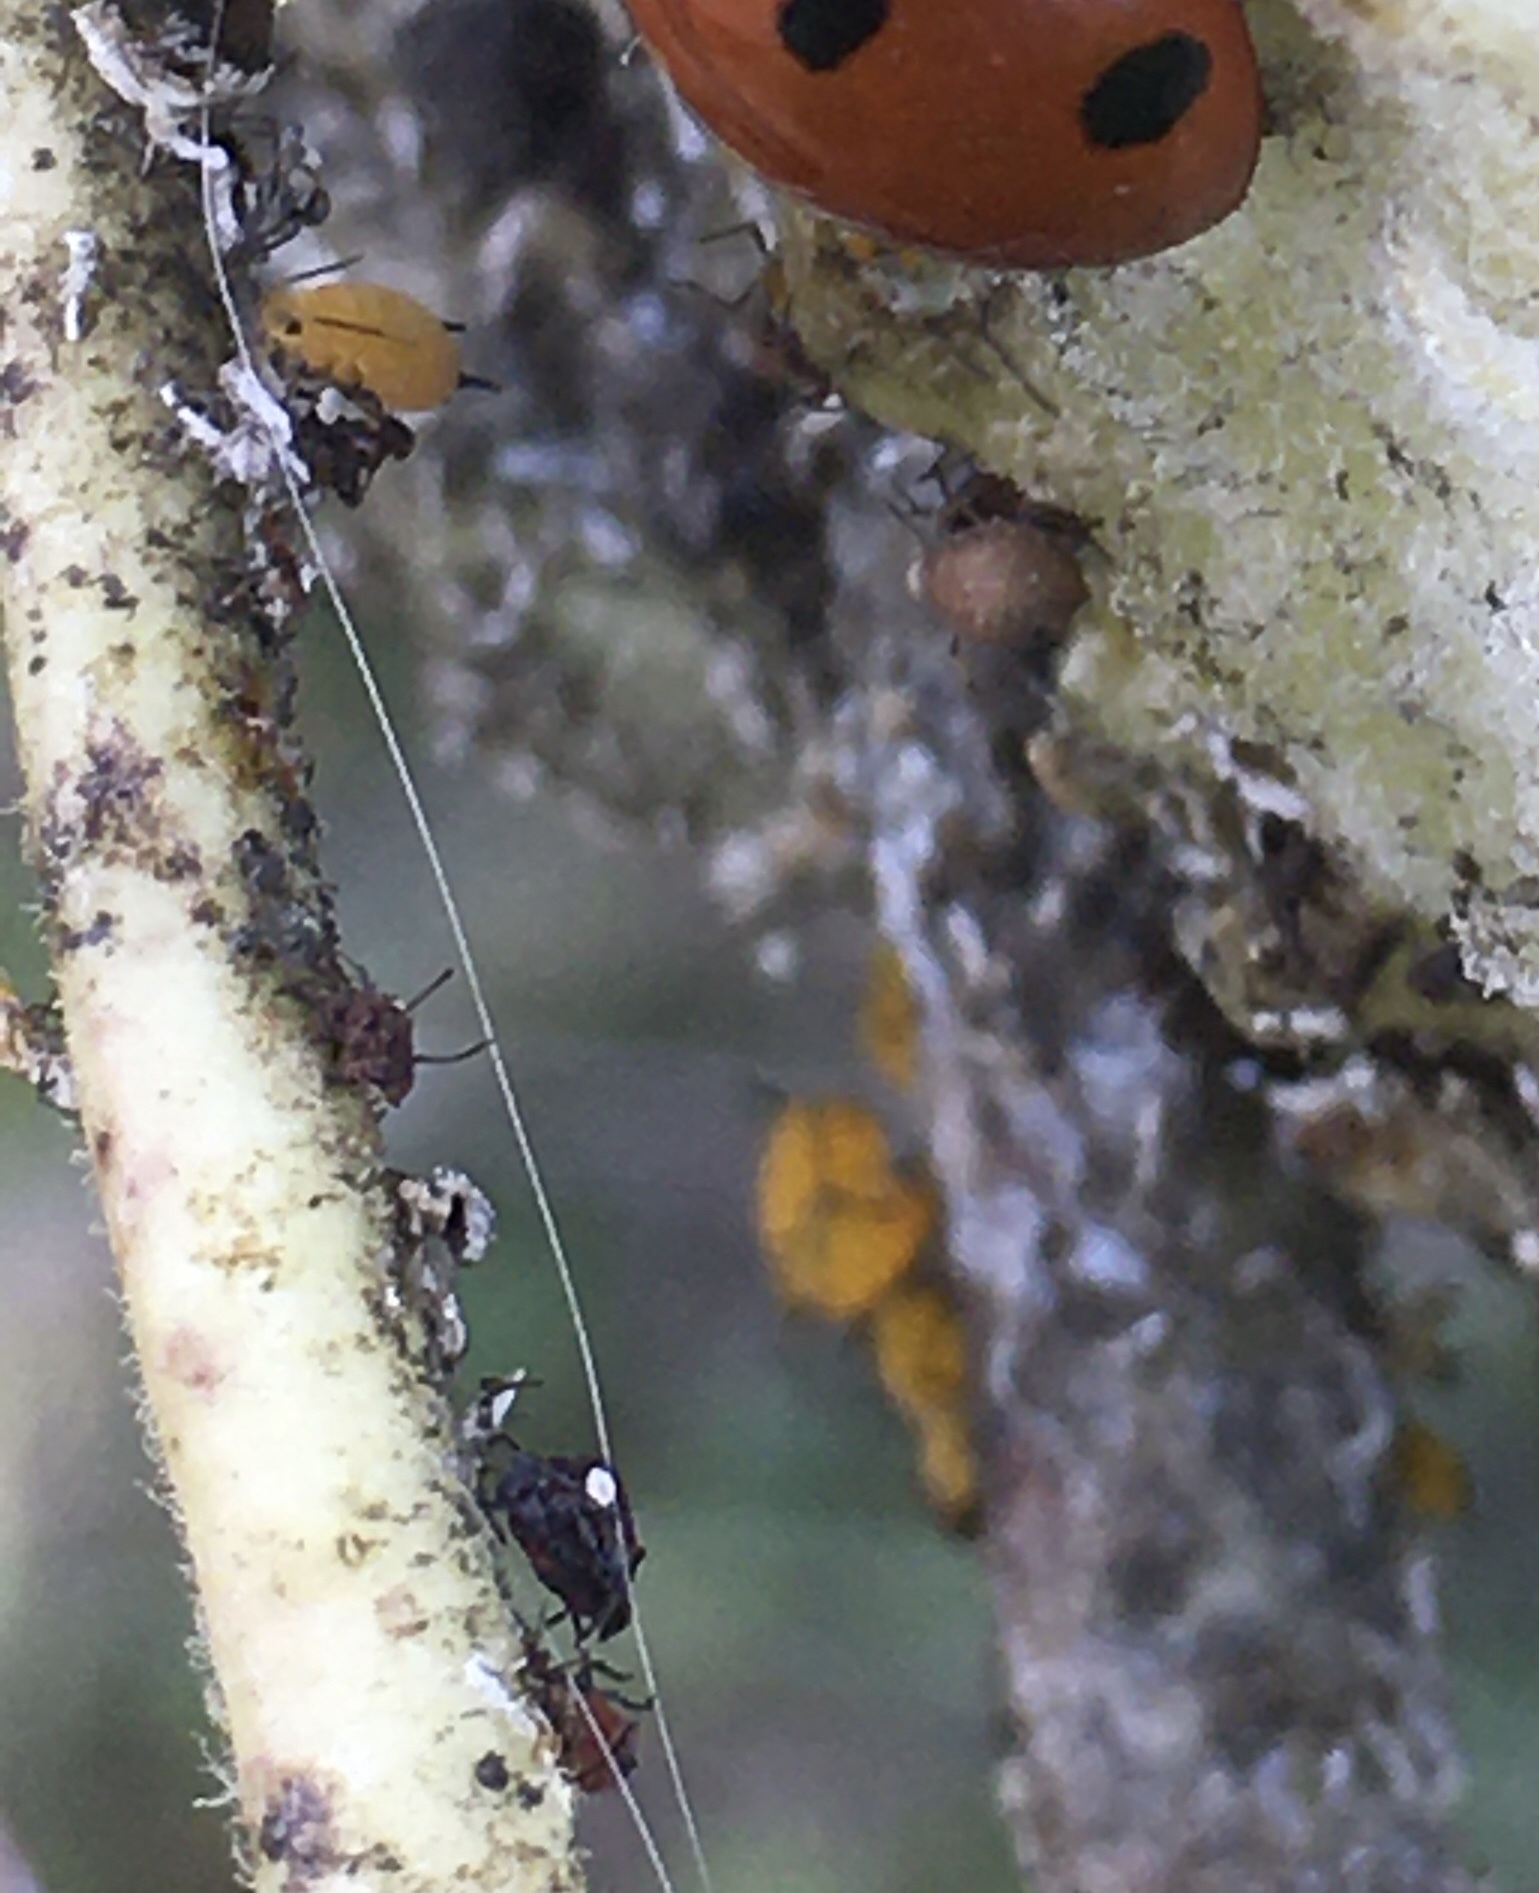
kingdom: Animalia
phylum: Arthropoda
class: Insecta
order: Hemiptera
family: Aphididae
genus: Aphis
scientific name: Aphis nerii
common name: Oleander aphid
